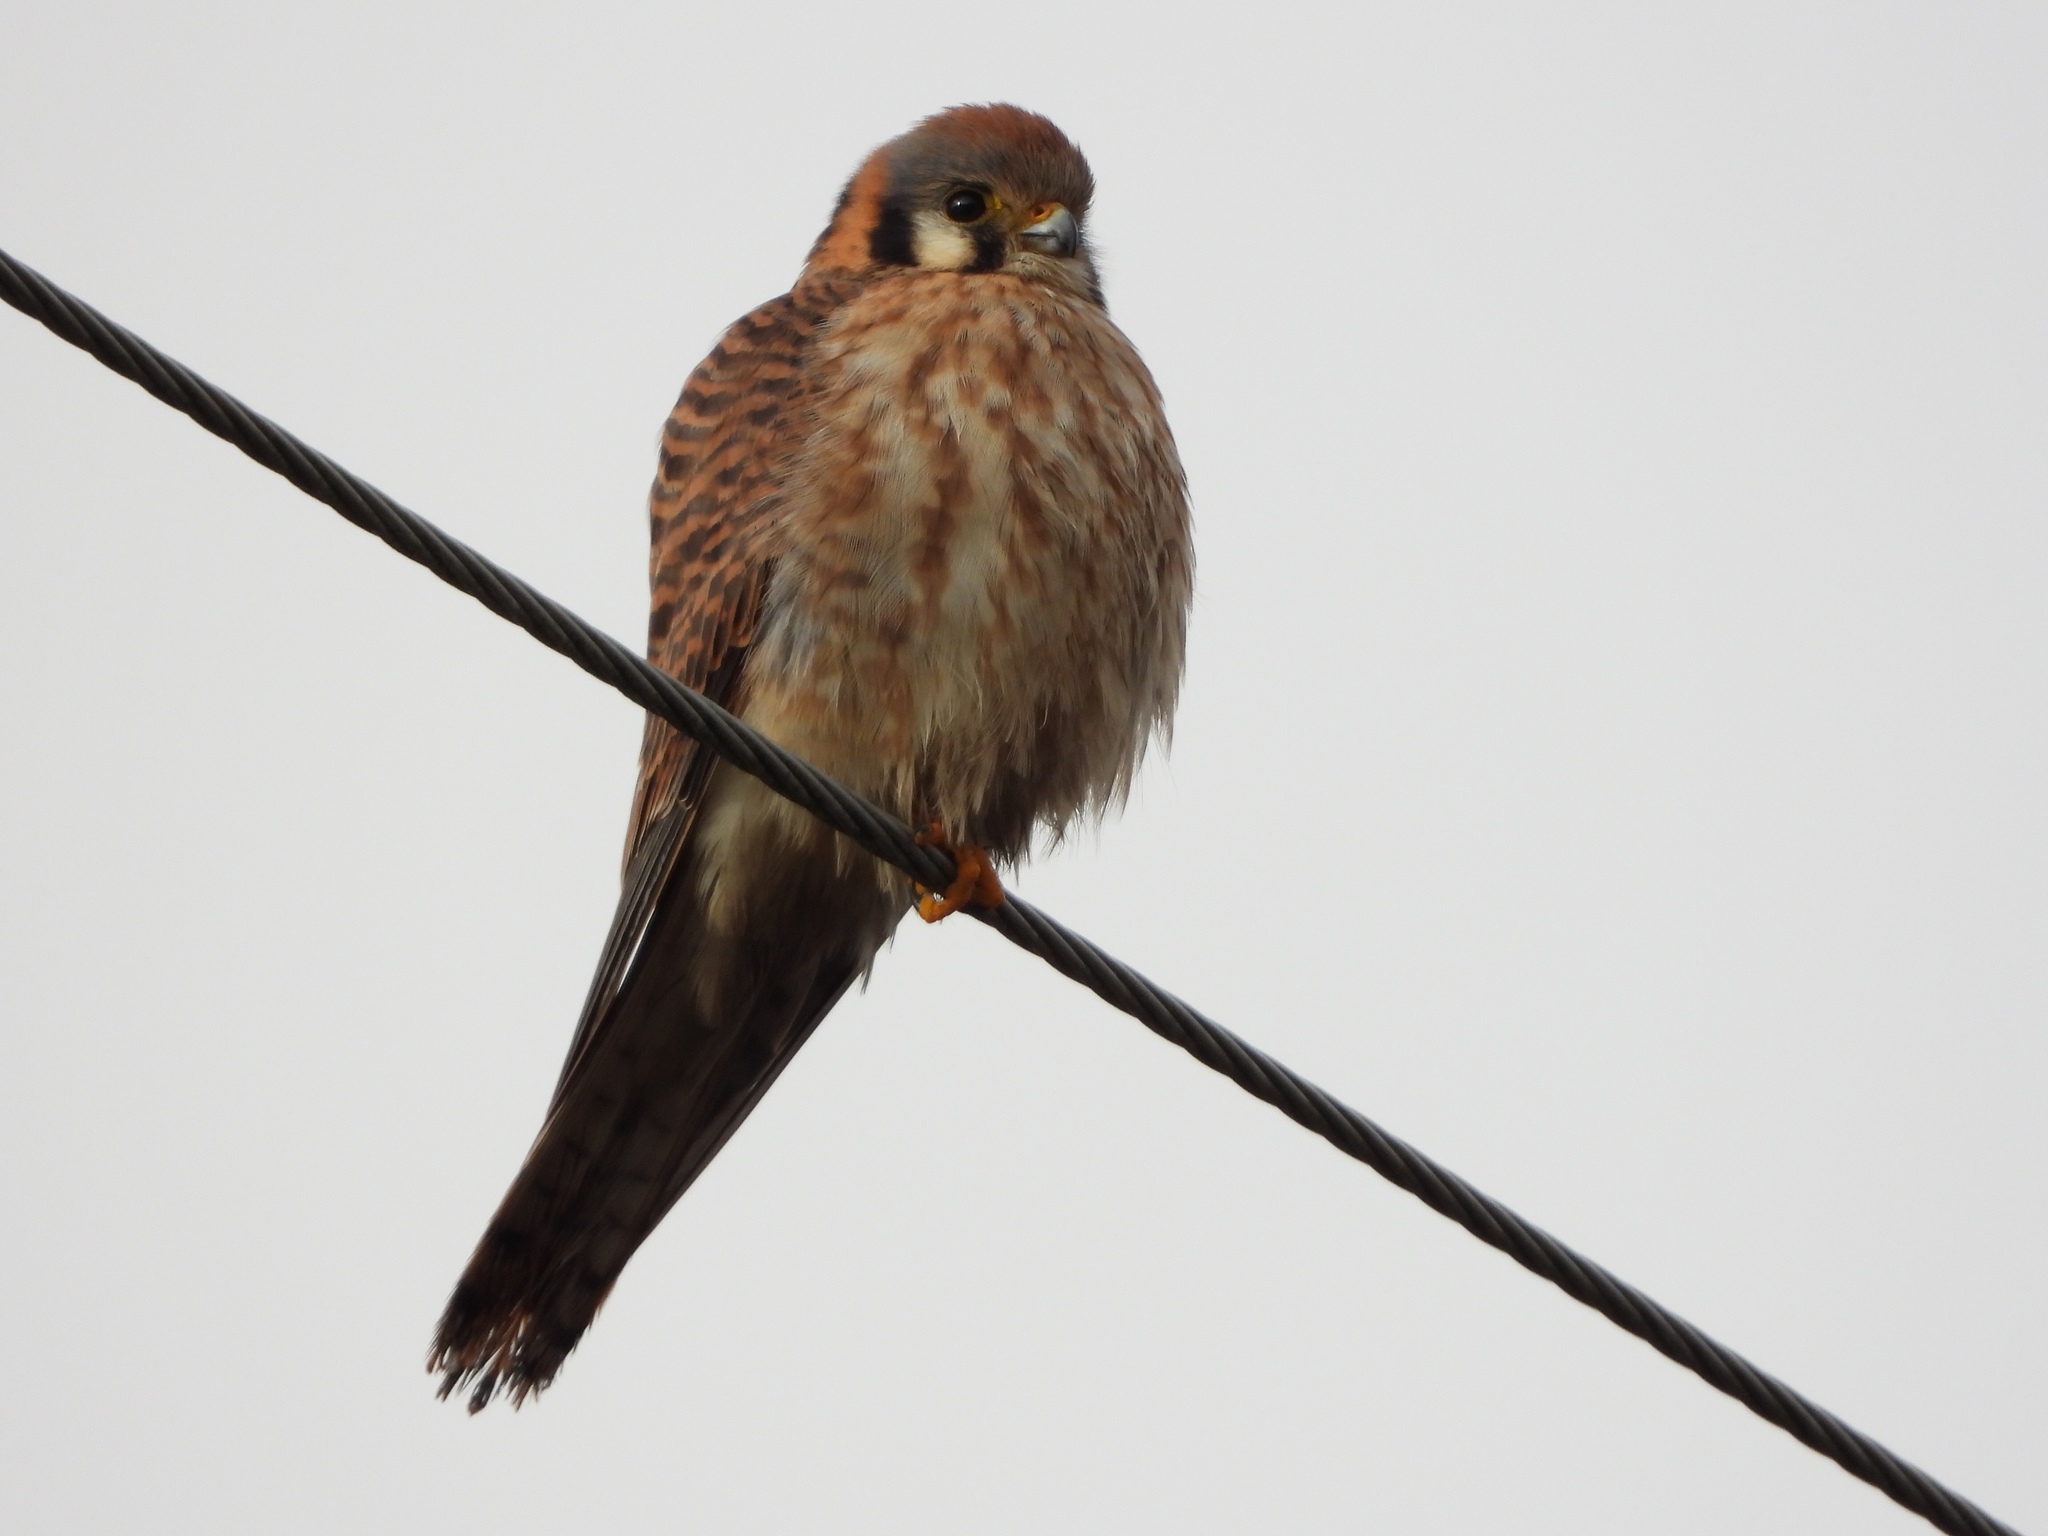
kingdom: Animalia
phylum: Chordata
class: Aves
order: Falconiformes
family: Falconidae
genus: Falco
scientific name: Falco sparverius
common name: American kestrel
